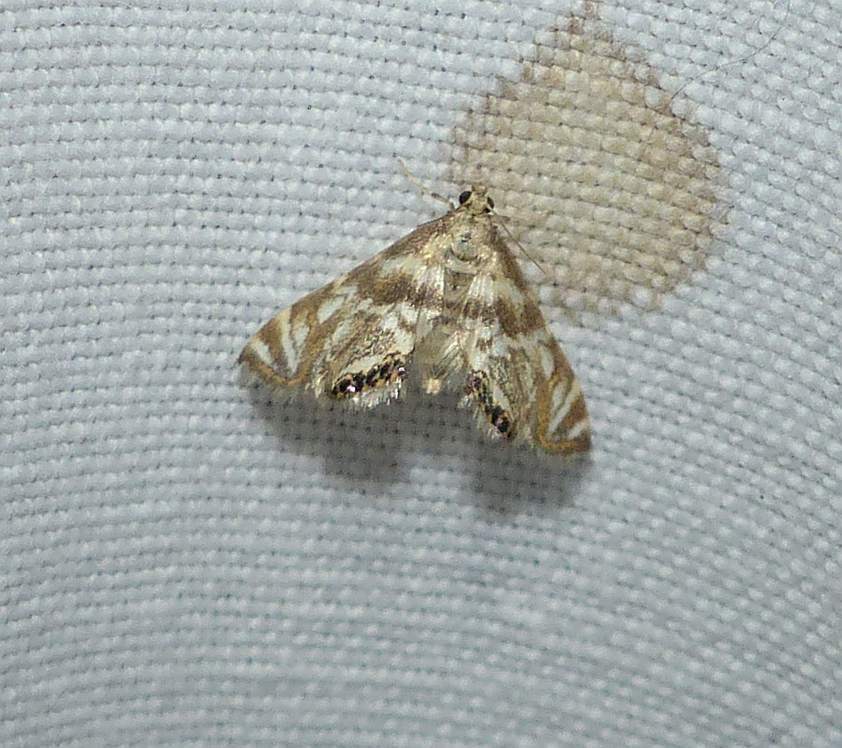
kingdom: Animalia
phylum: Arthropoda
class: Insecta
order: Lepidoptera
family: Crambidae
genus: Petrophila
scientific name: Petrophila canadensis
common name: Canadian petrophila
